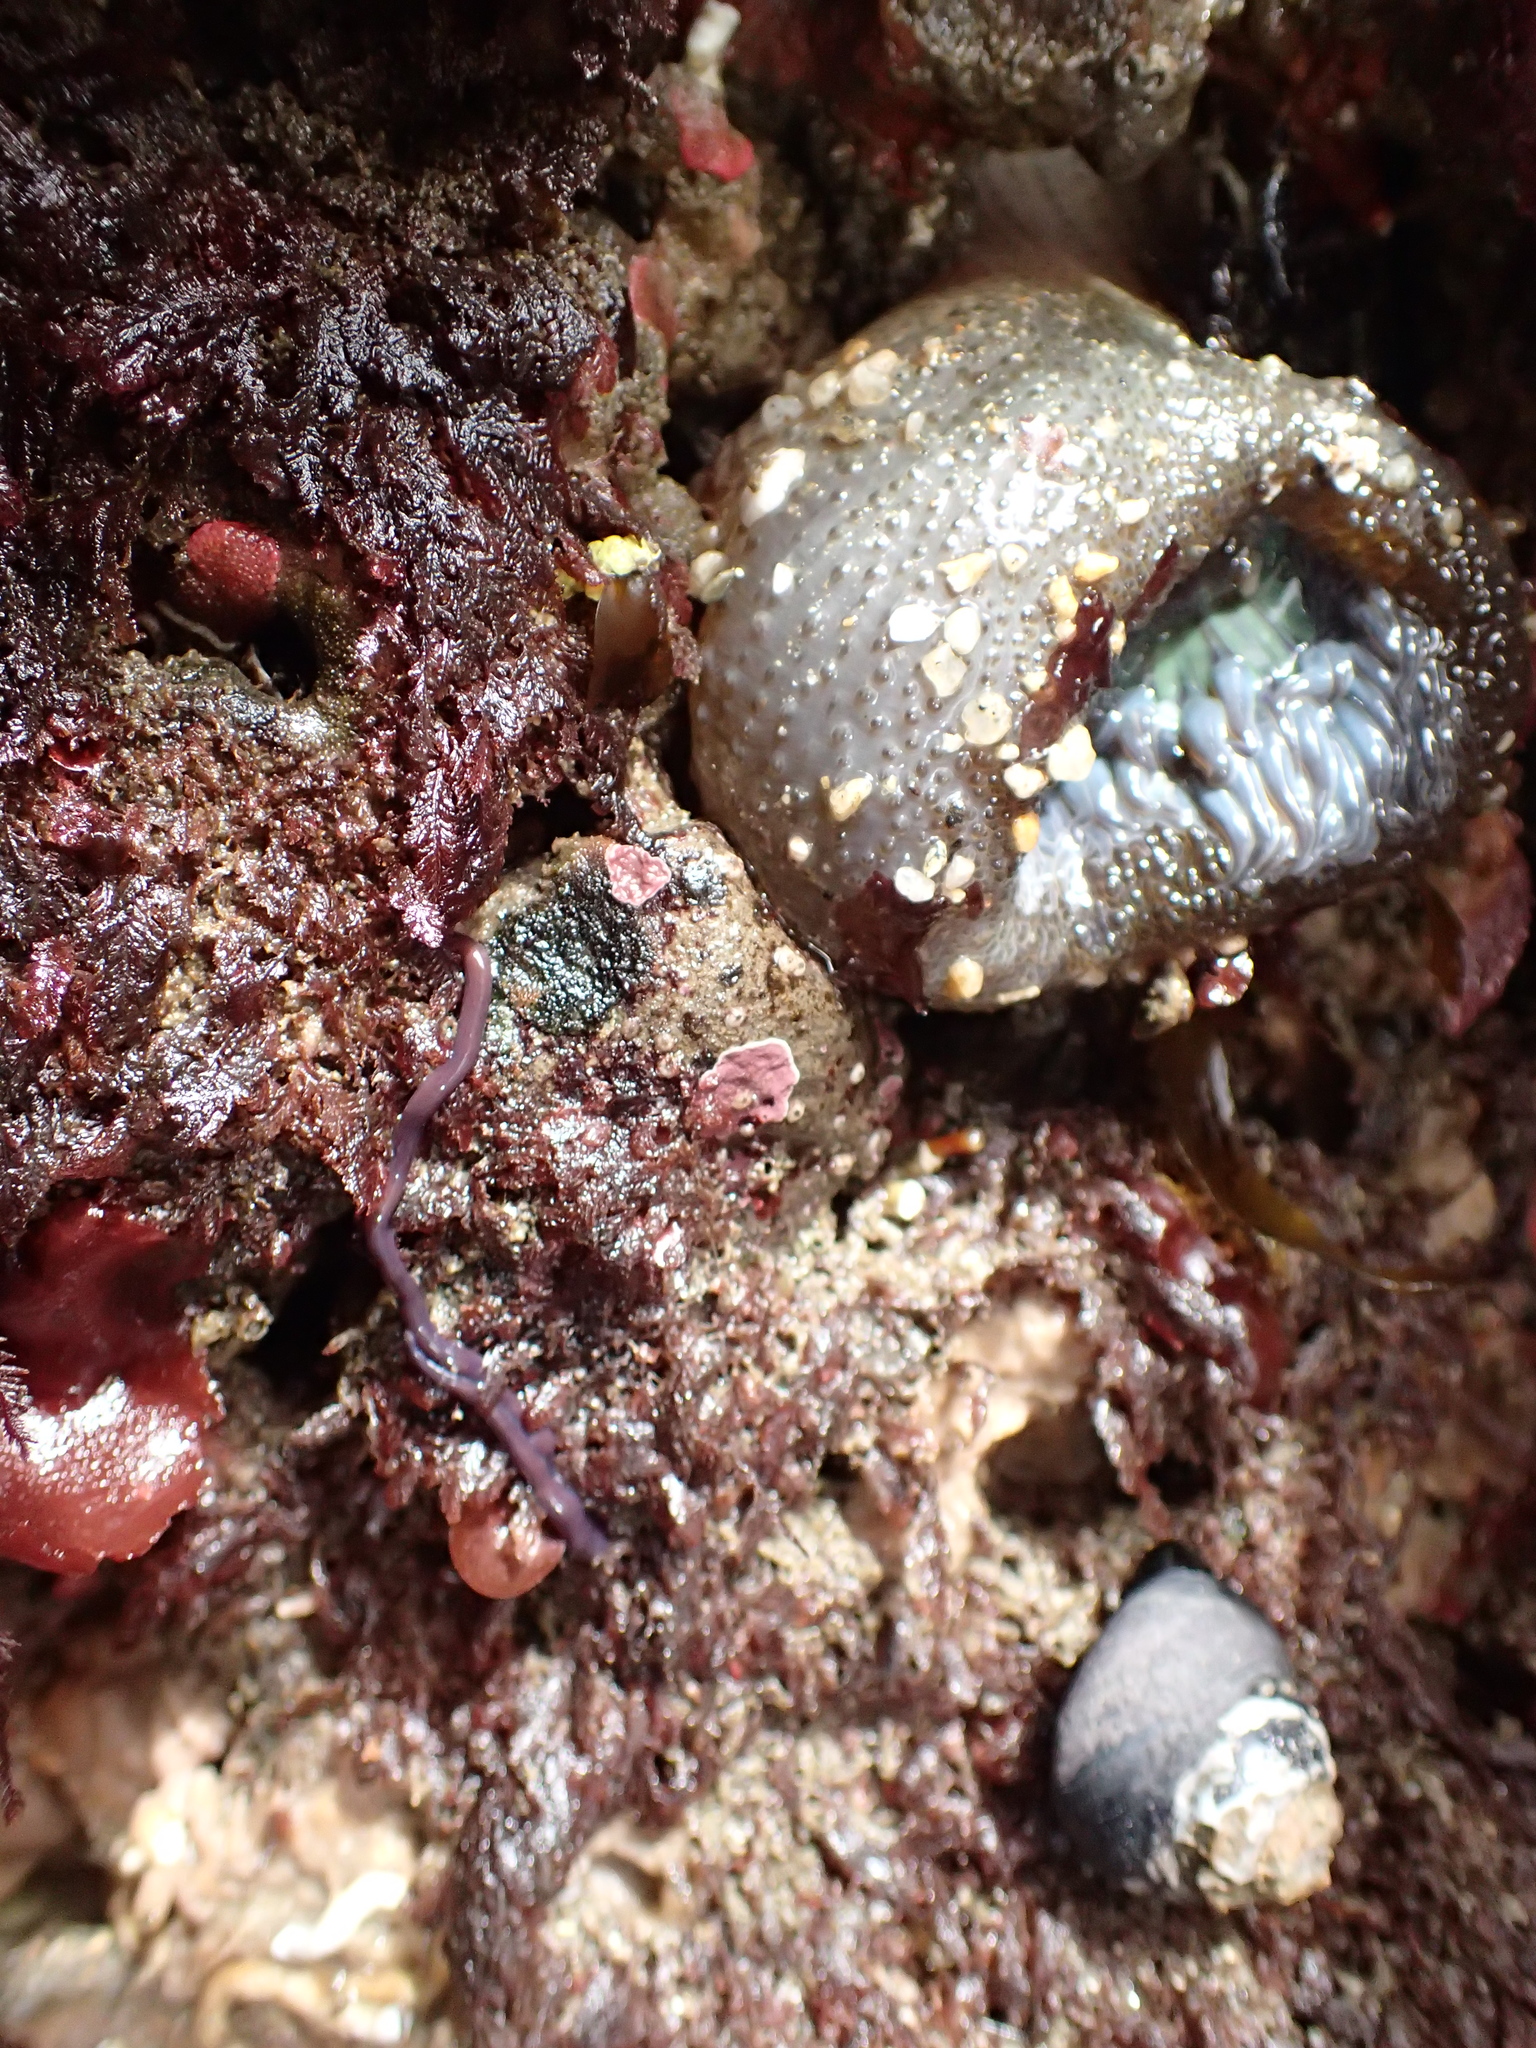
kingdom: Animalia
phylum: Nemertea
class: Hoplonemertea
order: Monostilifera
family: Neesiidae
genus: Paranemertes
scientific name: Paranemertes peregrina
